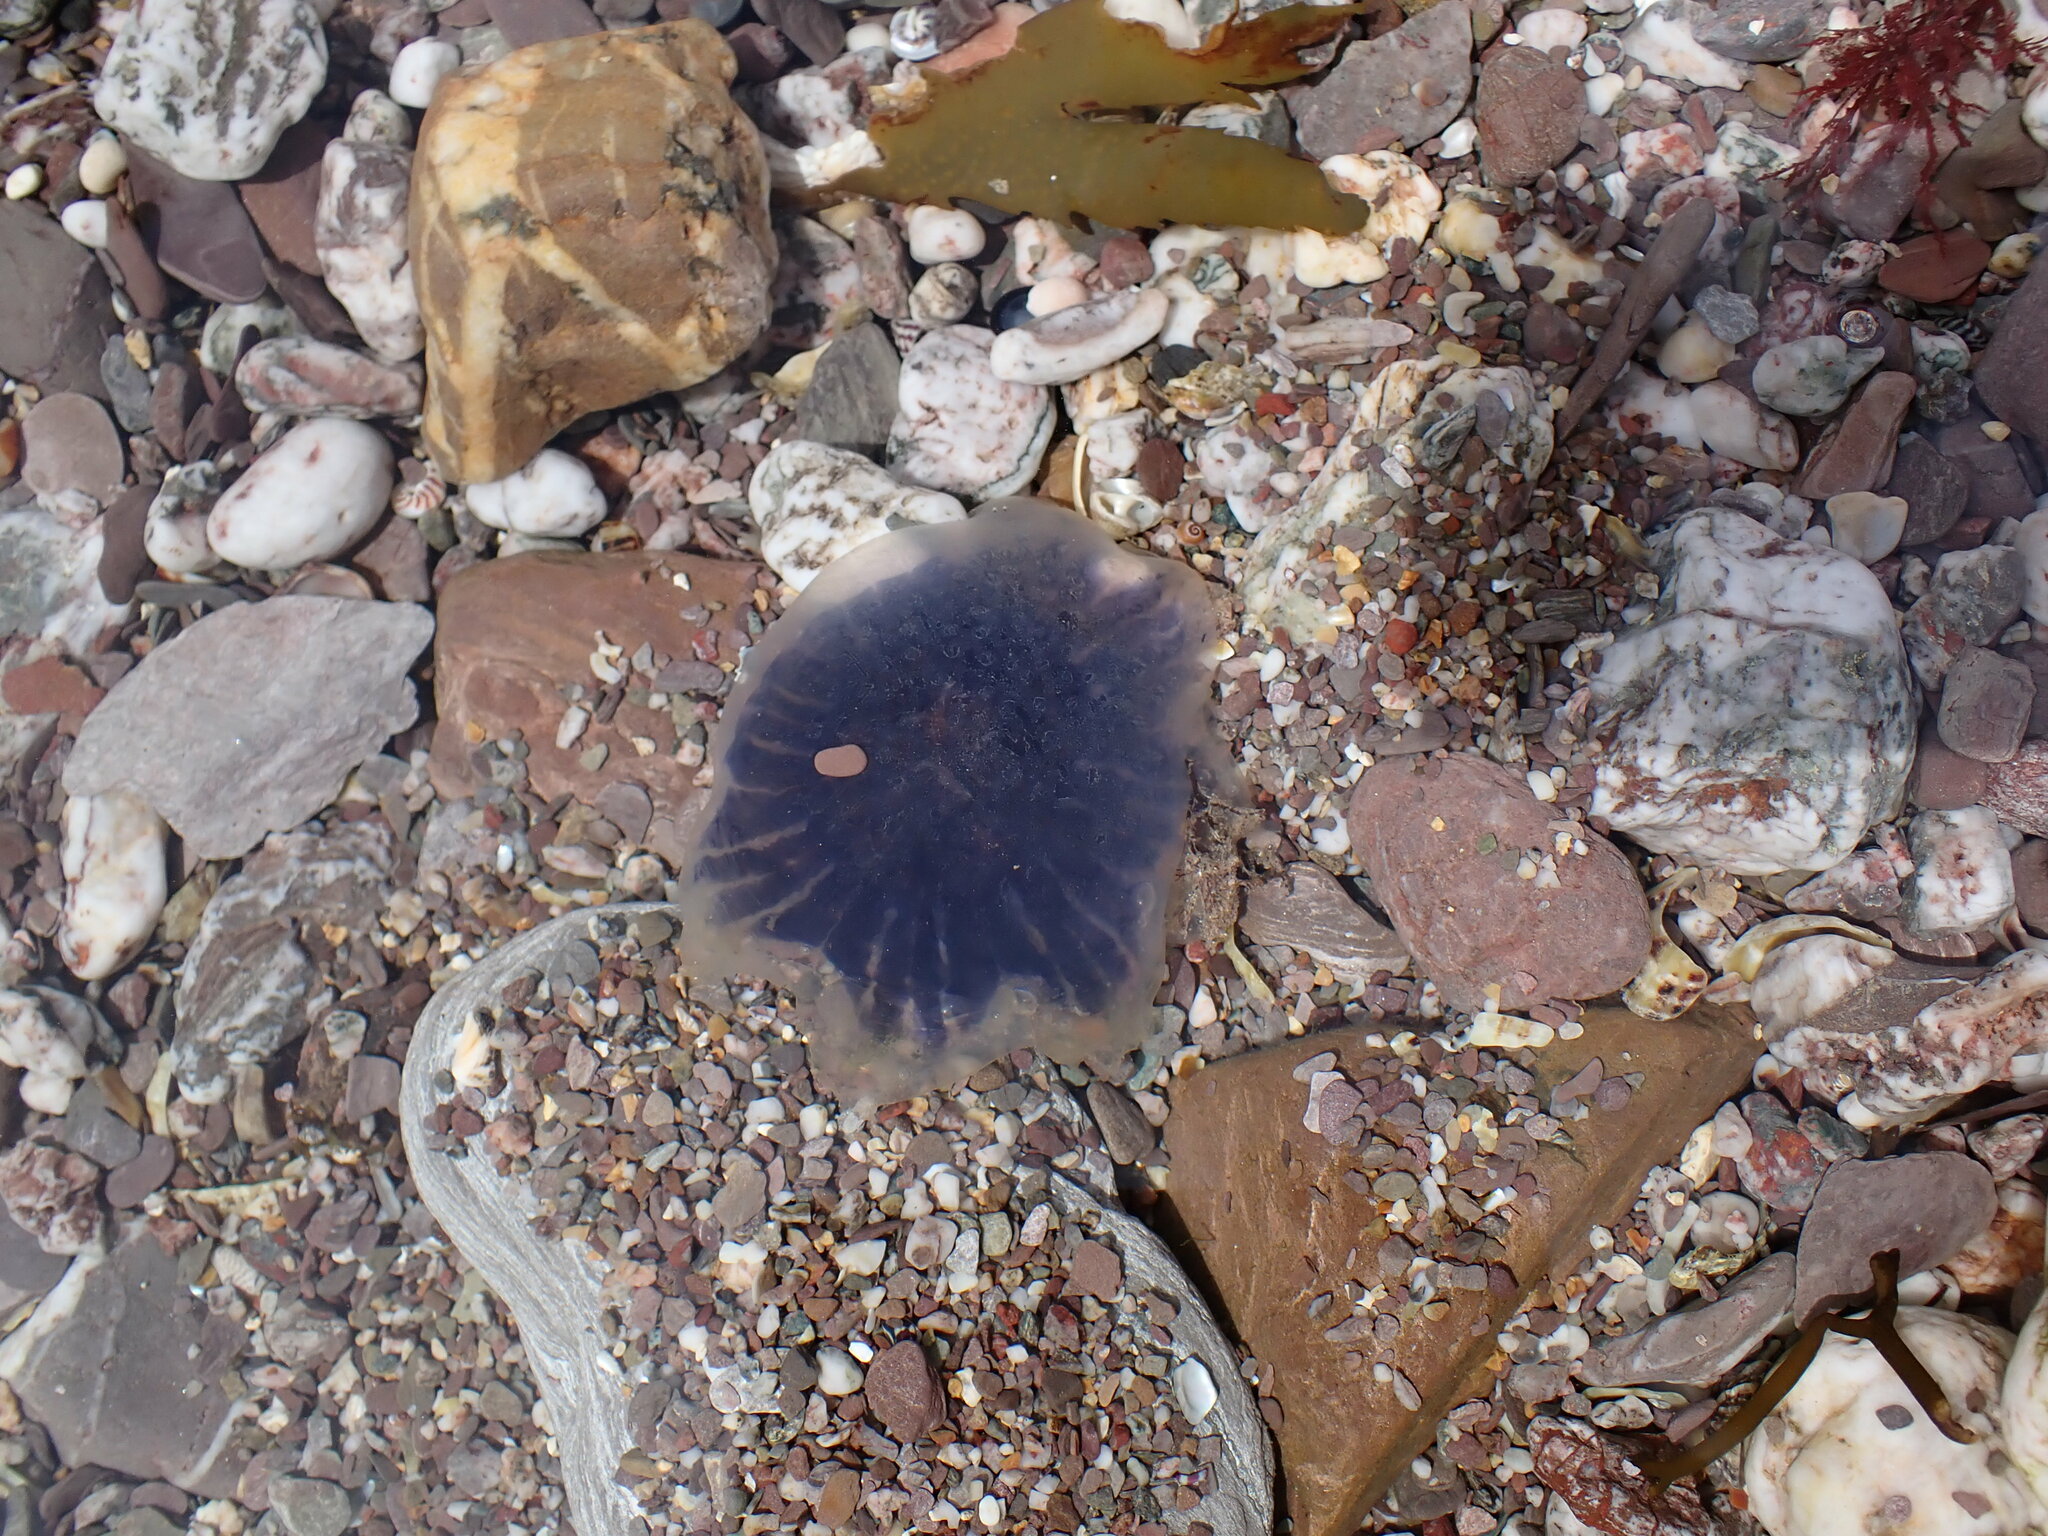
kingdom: Animalia
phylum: Cnidaria
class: Scyphozoa
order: Semaeostomeae
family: Cyaneidae
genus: Cyanea
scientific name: Cyanea lamarckii
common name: Blue jellyfish
